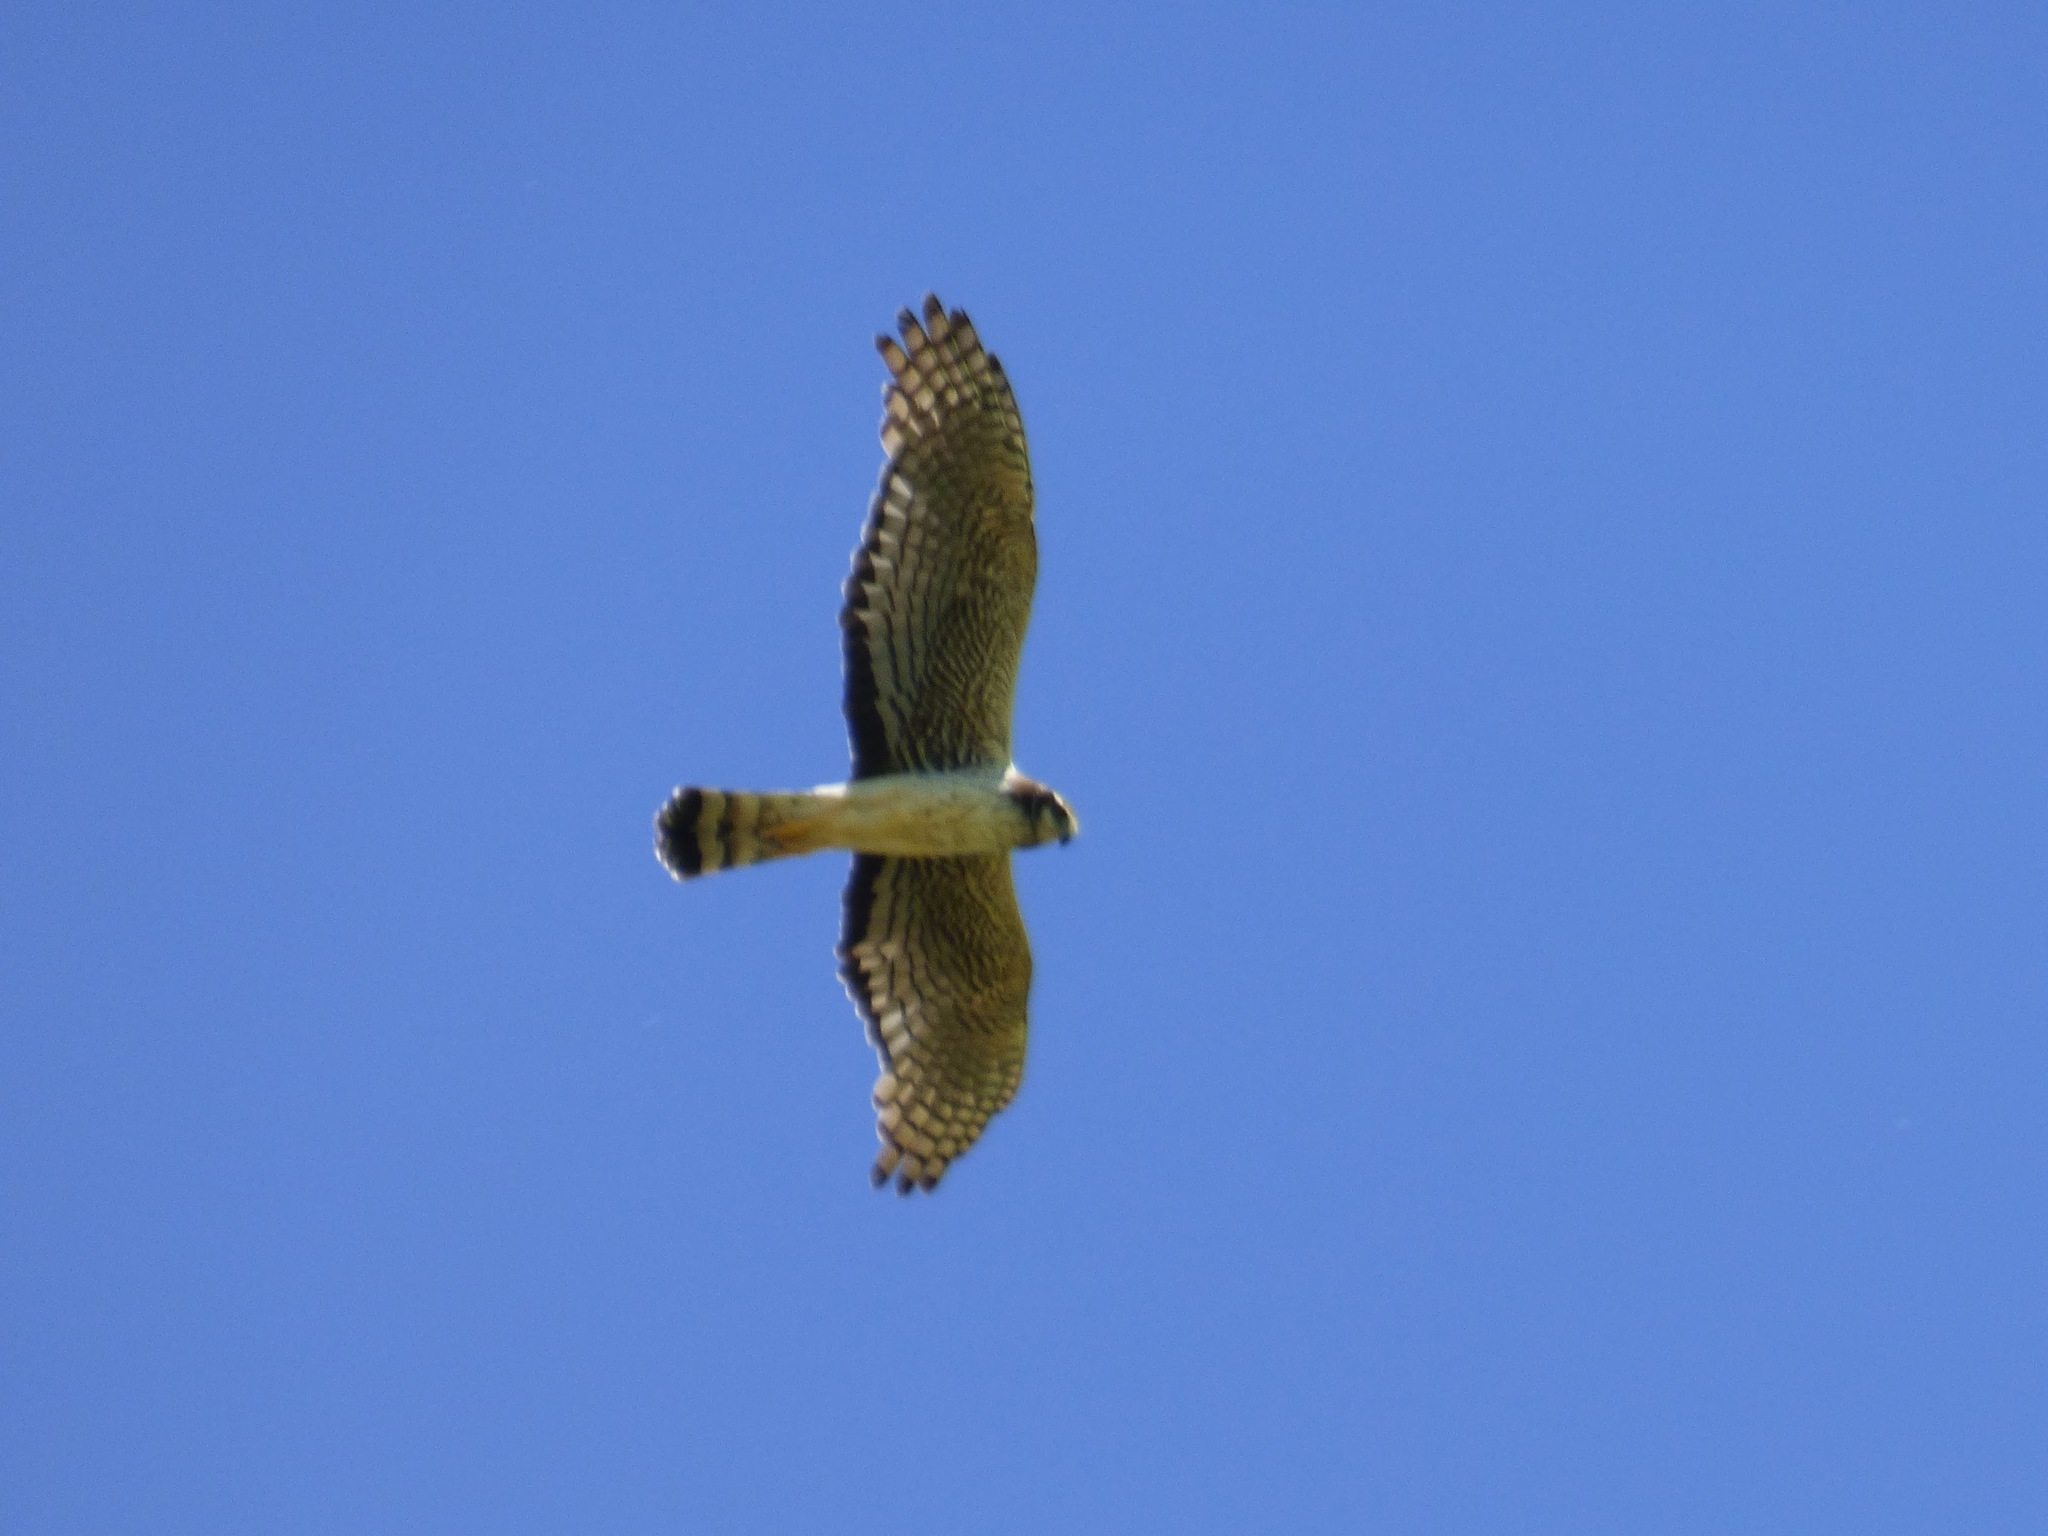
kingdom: Animalia
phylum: Chordata
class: Aves
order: Accipitriformes
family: Accipitridae
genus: Circus
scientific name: Circus buffoni
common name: Long-winged harrier
